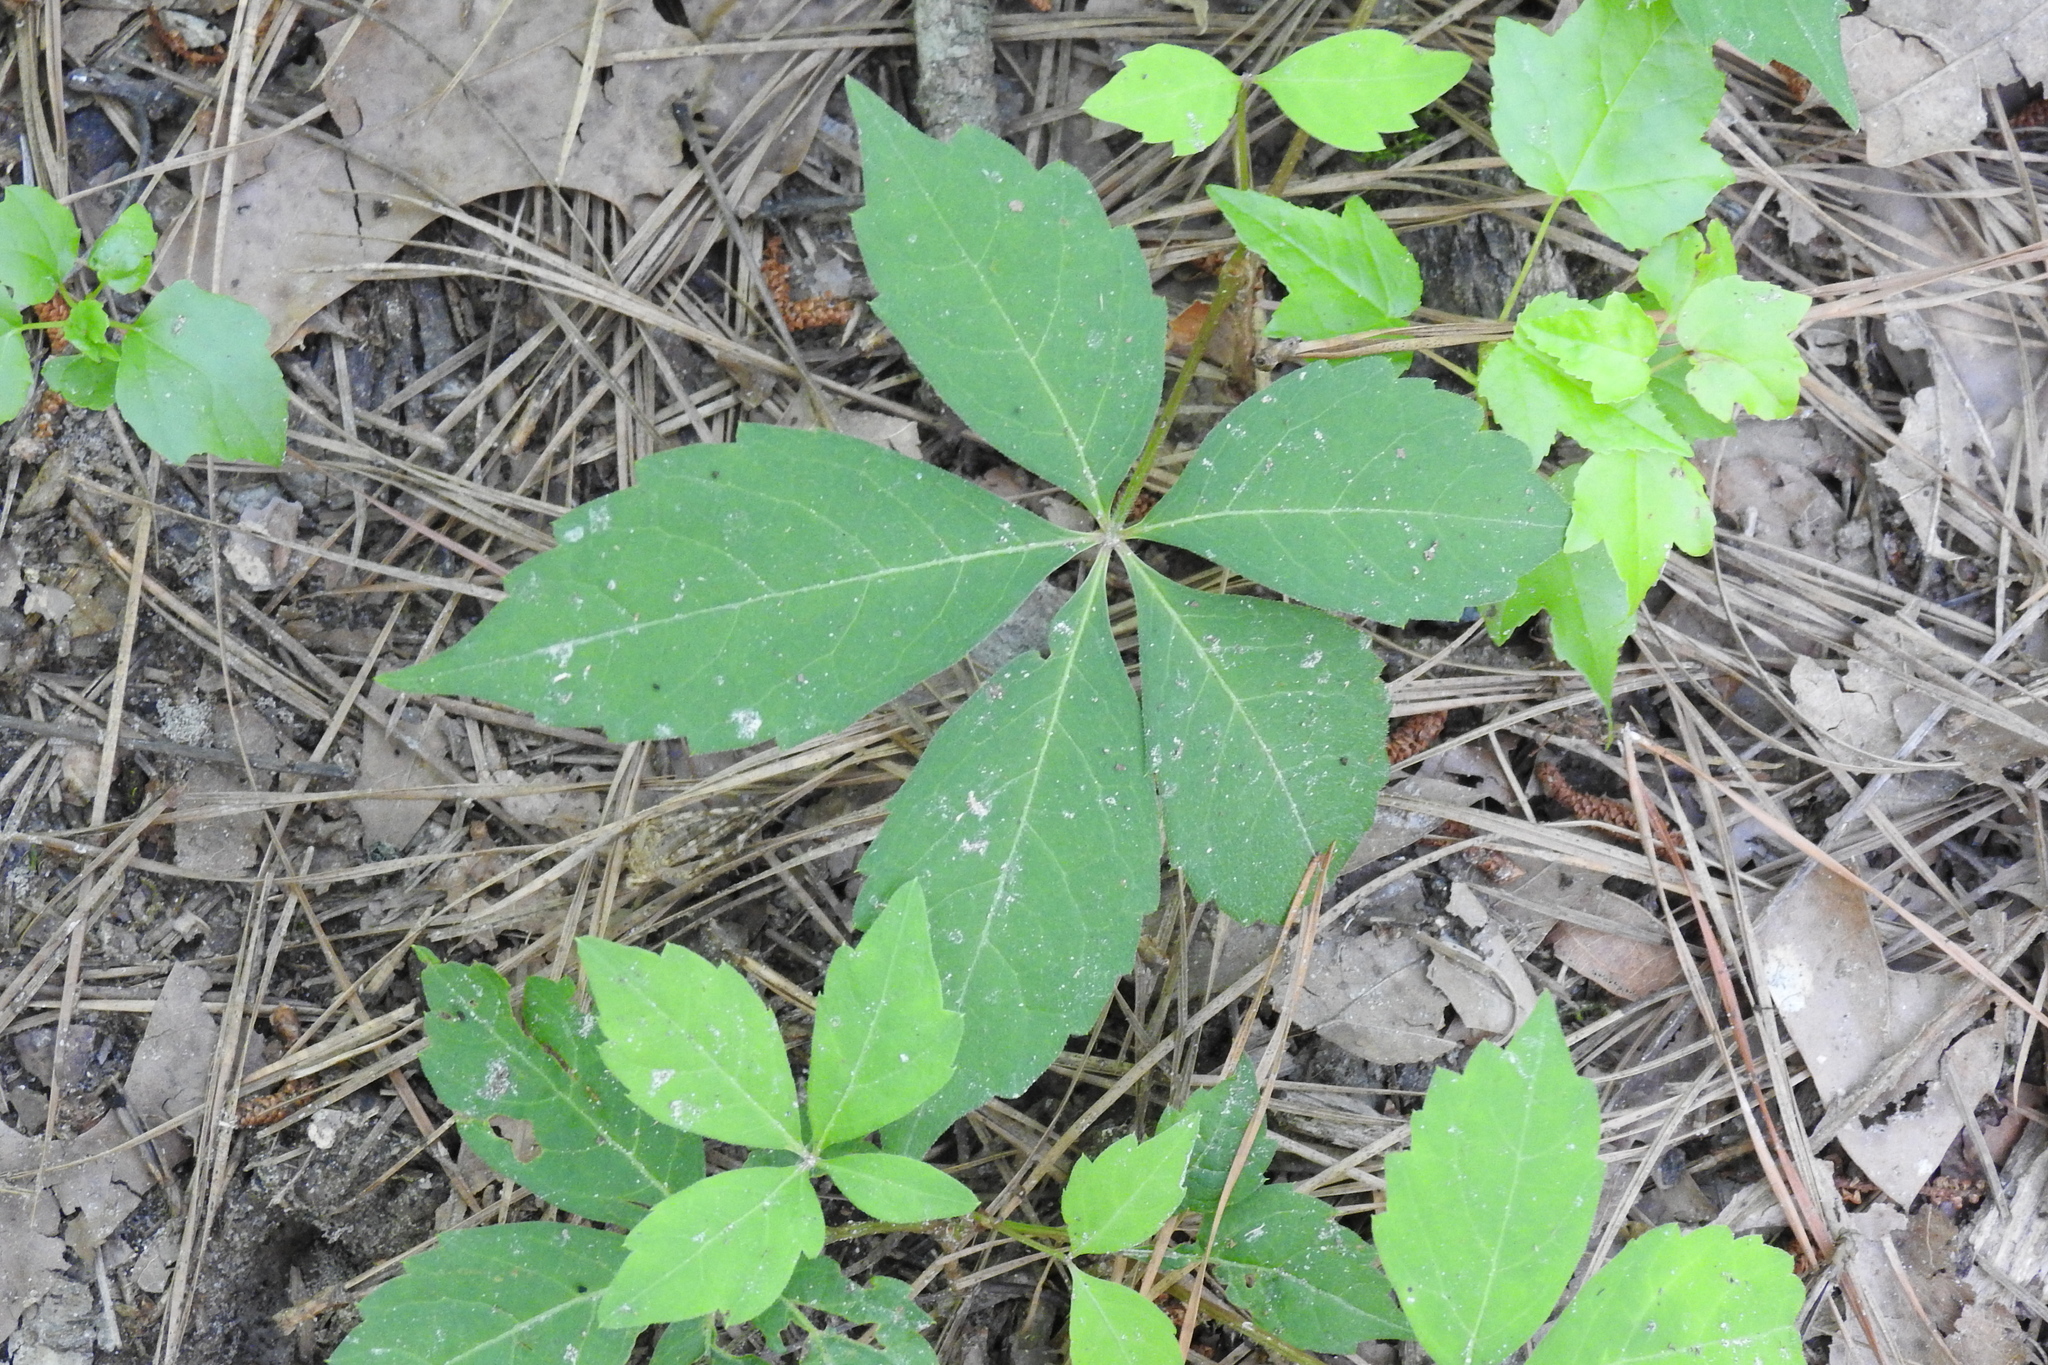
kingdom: Plantae
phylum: Tracheophyta
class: Magnoliopsida
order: Vitales
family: Vitaceae
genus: Parthenocissus
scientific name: Parthenocissus quinquefolia
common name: Virginia-creeper
